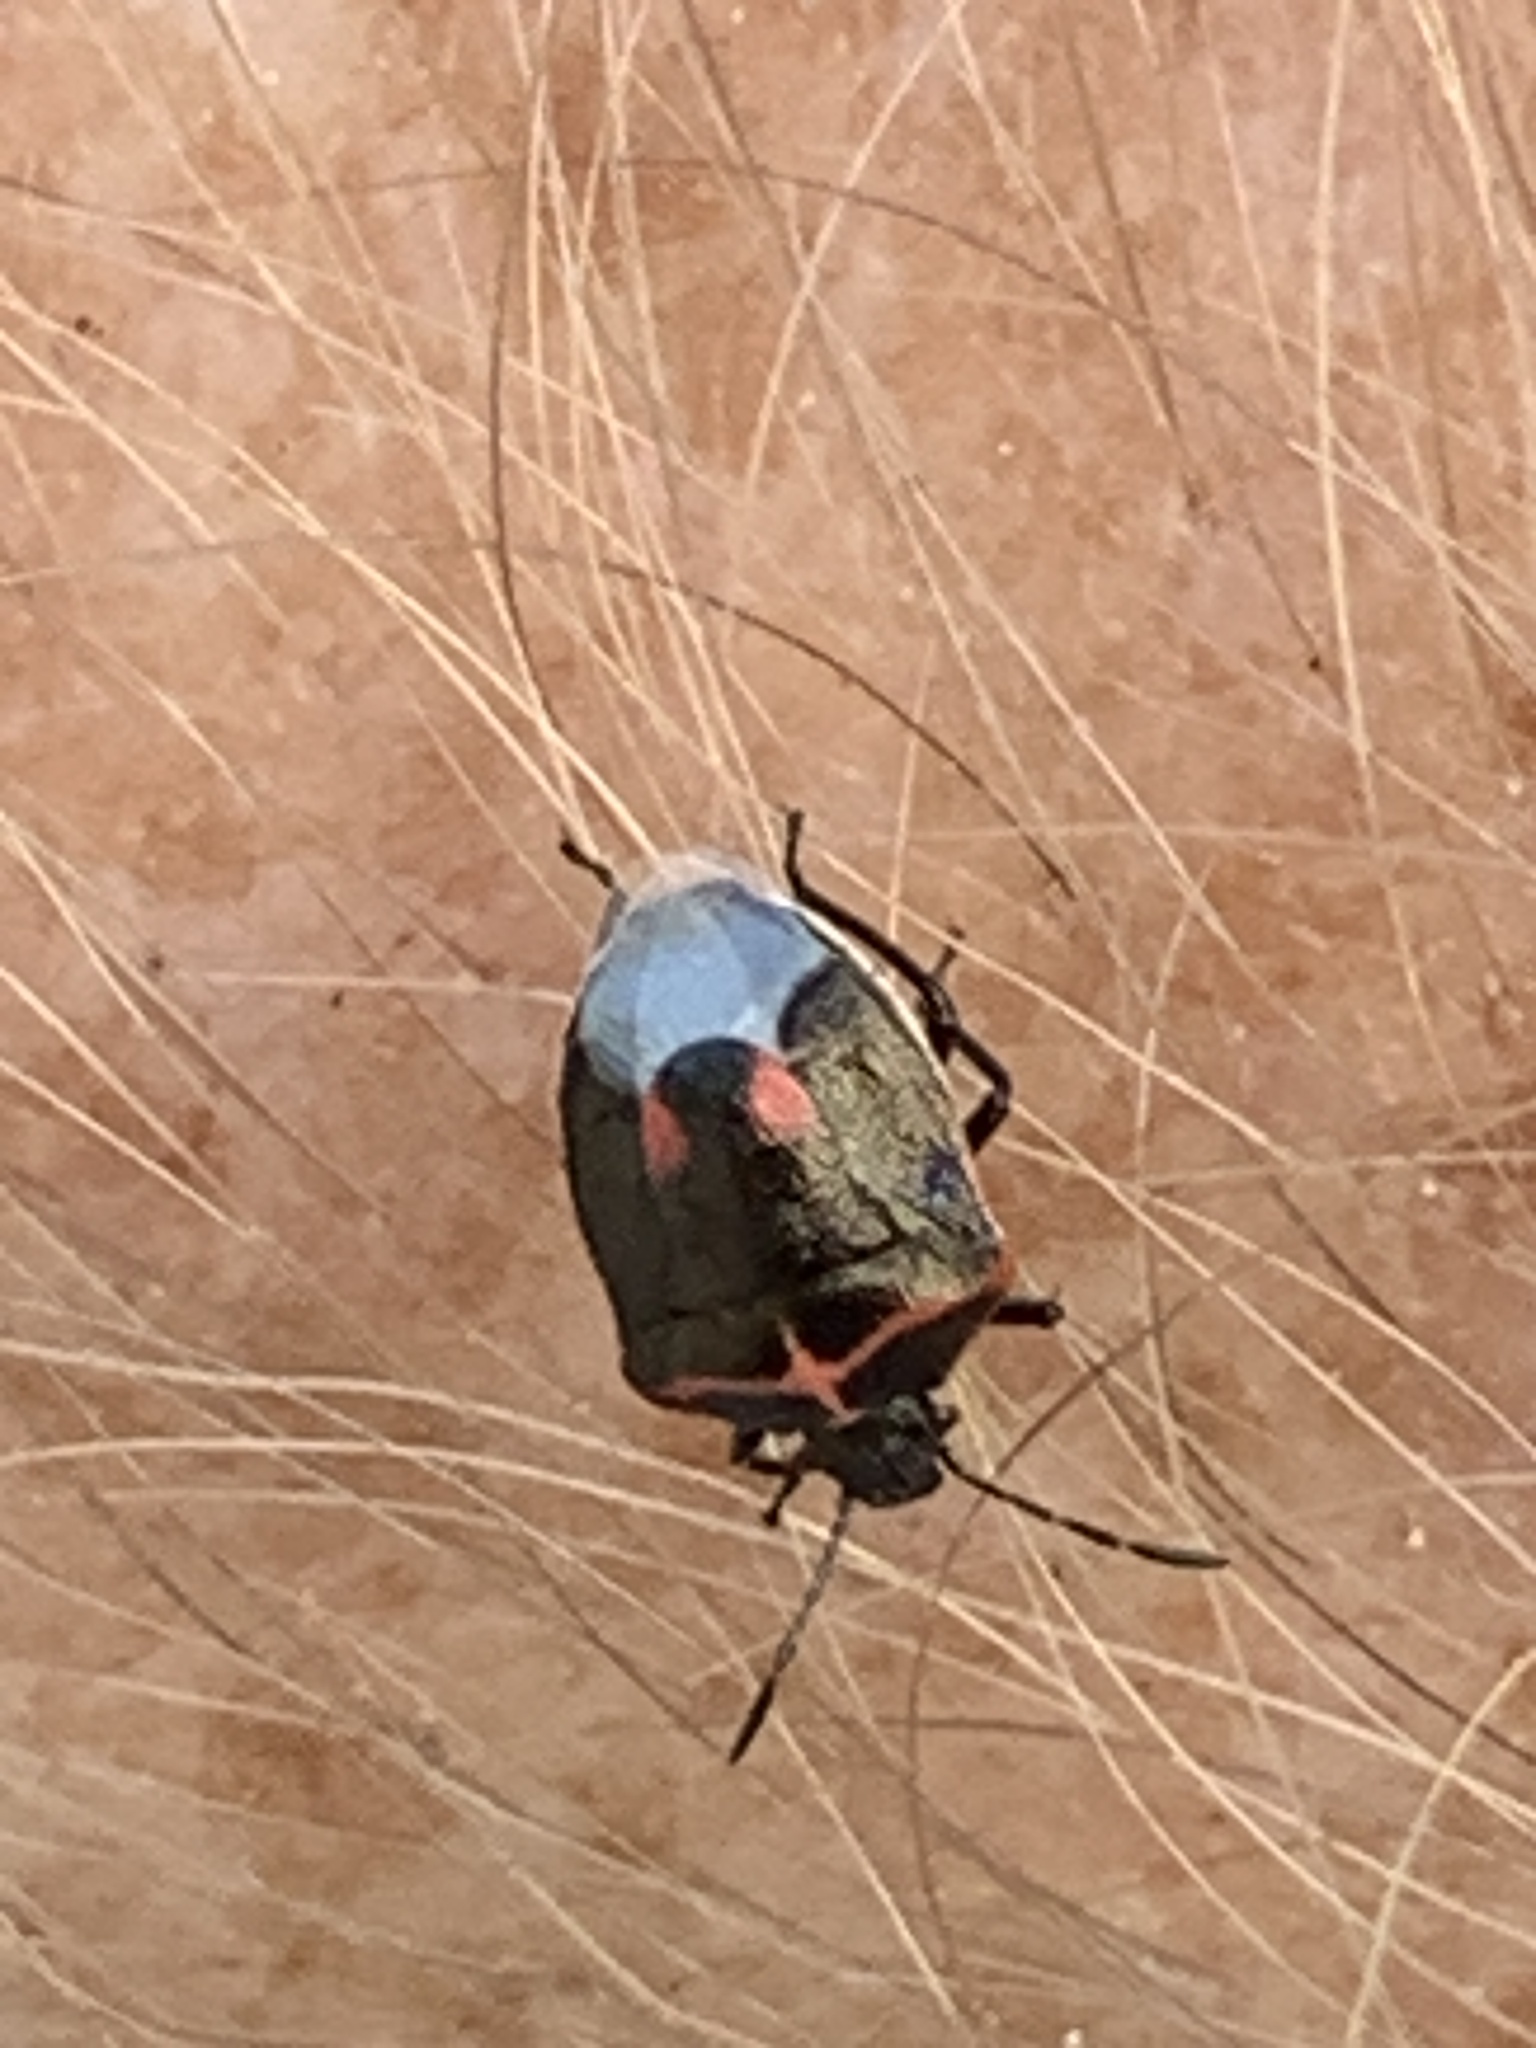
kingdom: Animalia
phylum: Arthropoda
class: Insecta
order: Hemiptera
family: Pentatomidae
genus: Cosmopepla
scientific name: Cosmopepla lintneriana
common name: Twice-stabbed stink bug
